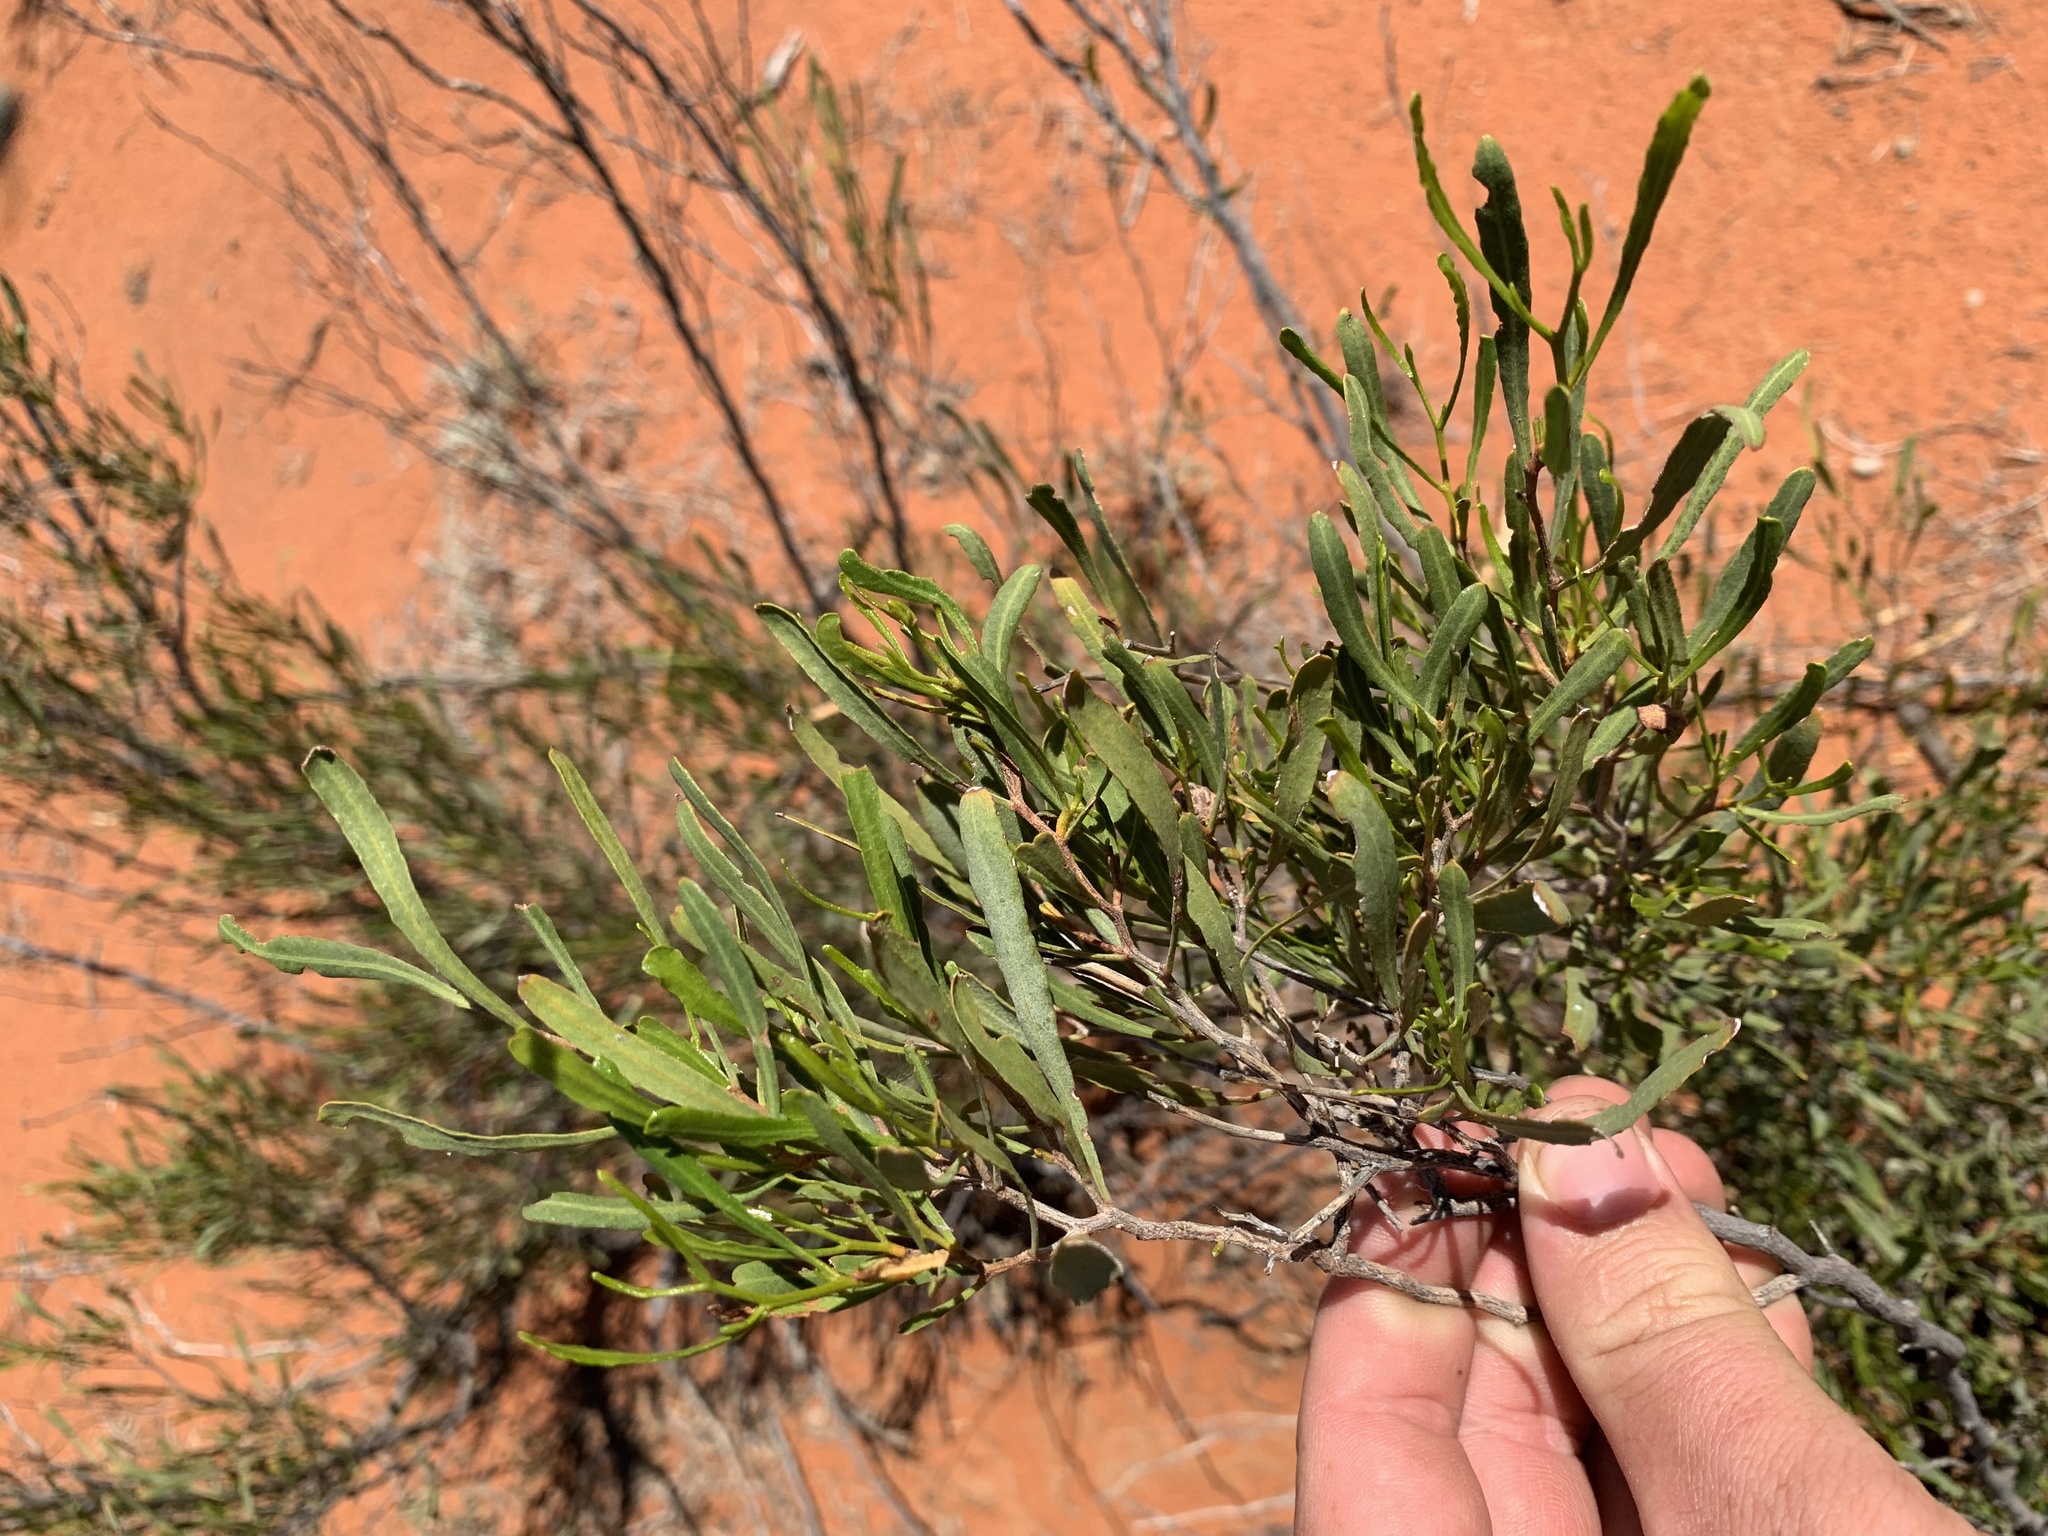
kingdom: Plantae
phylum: Tracheophyta
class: Magnoliopsida
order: Sapindales
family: Sapindaceae
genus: Dodonaea
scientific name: Dodonaea viscosa
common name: Hopbush
